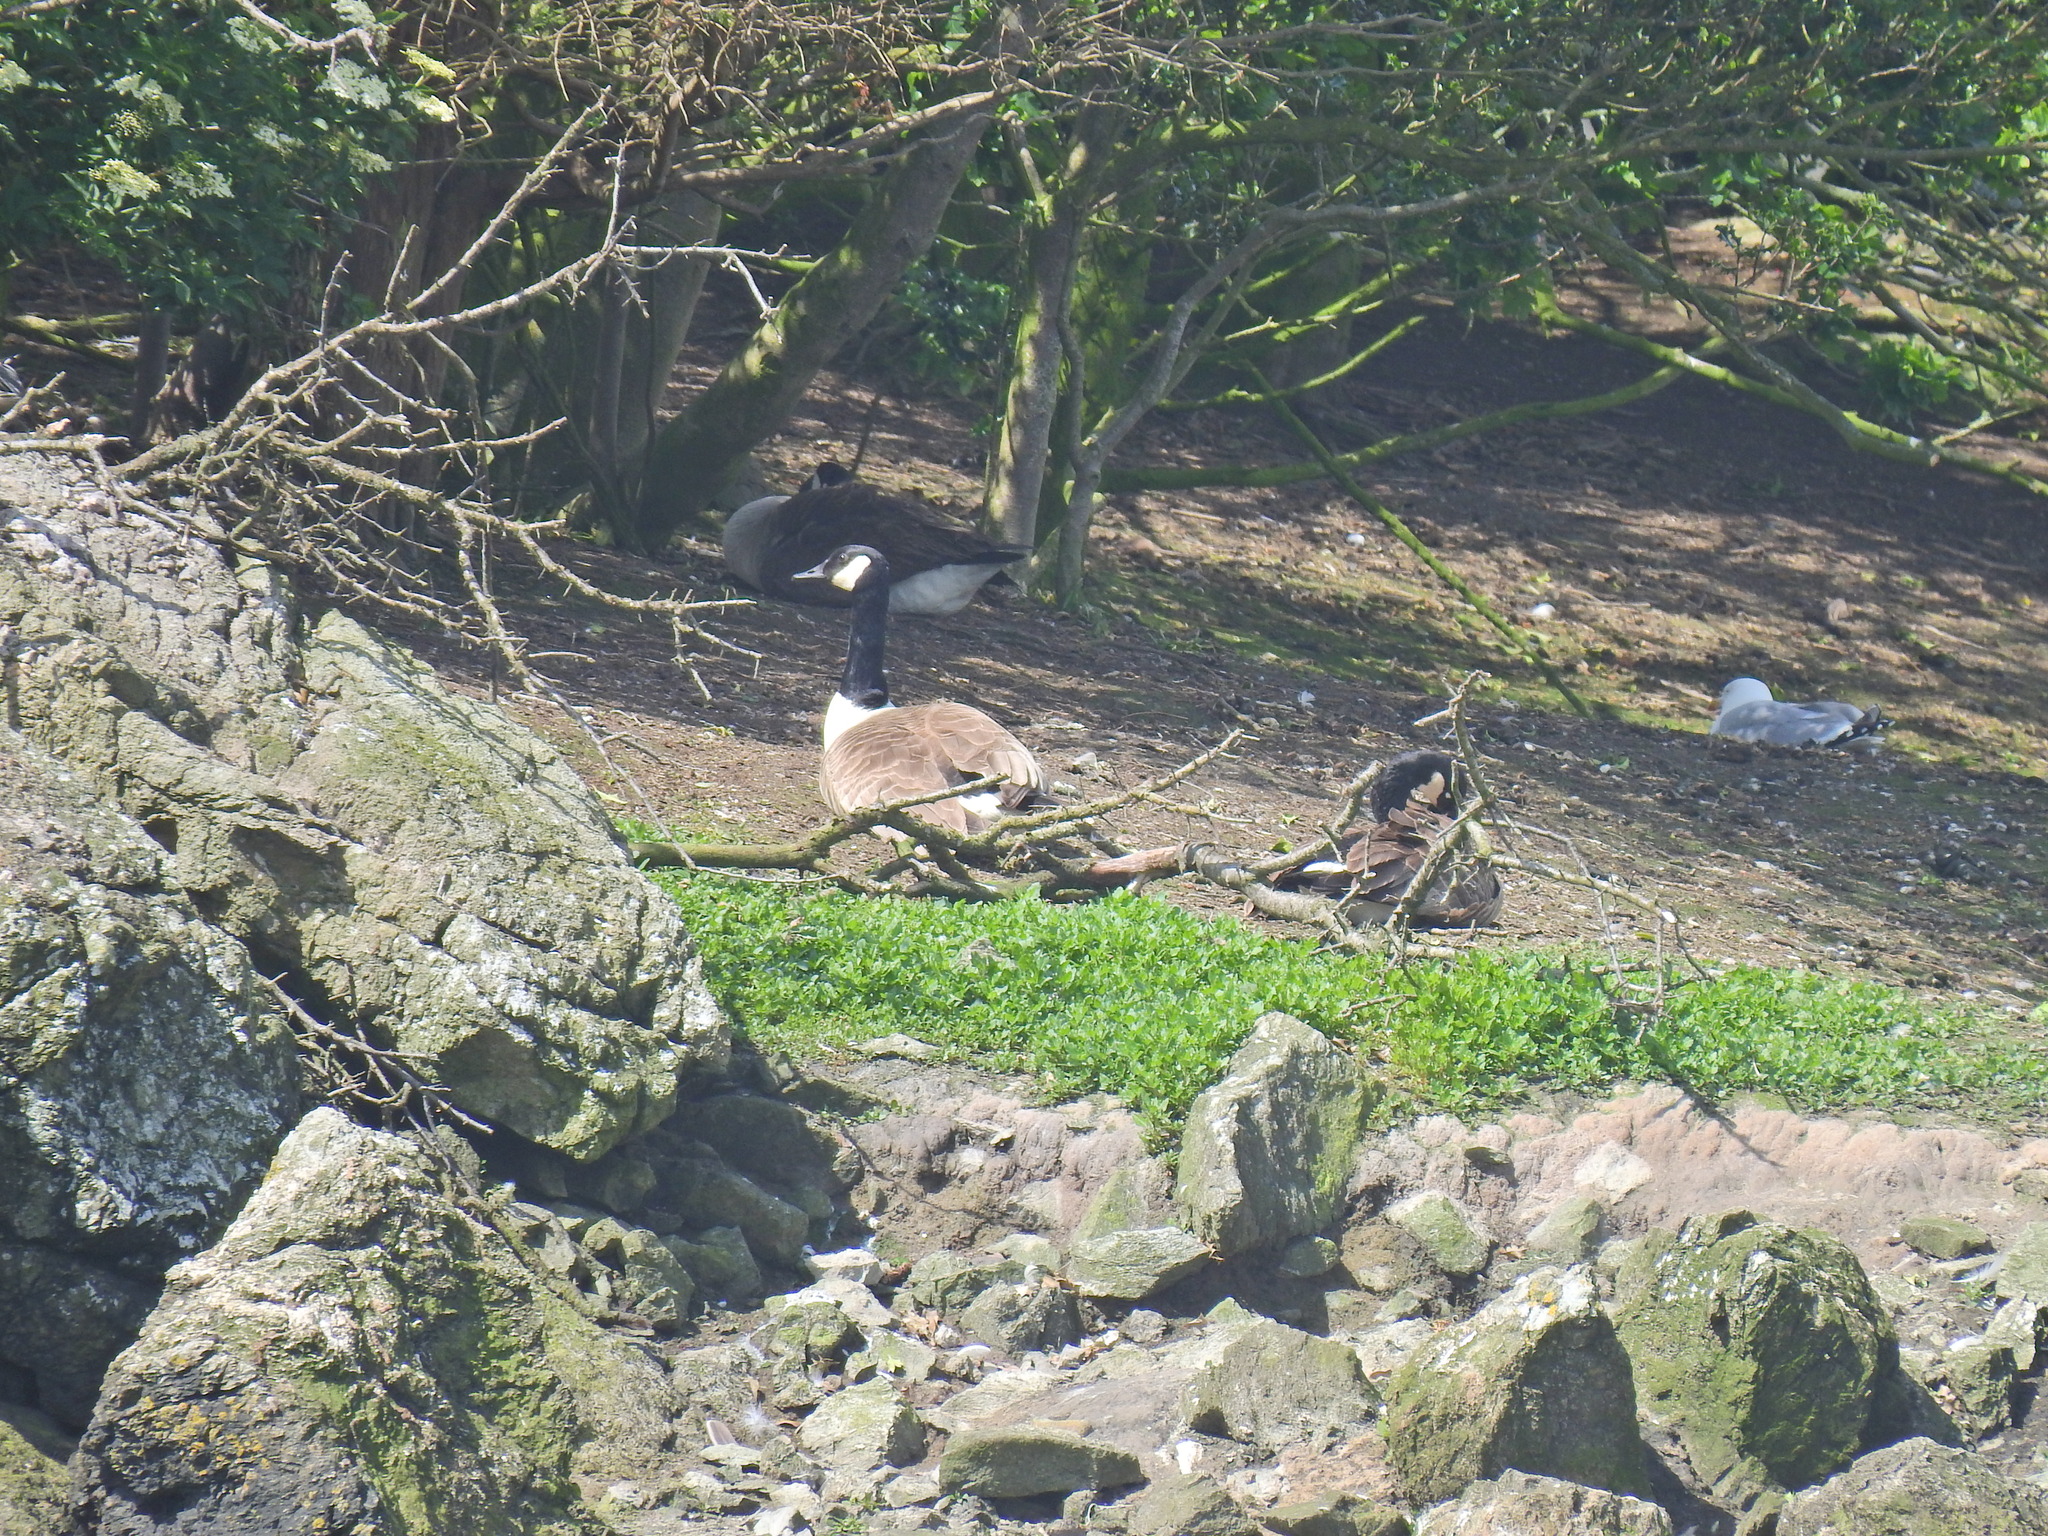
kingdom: Animalia
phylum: Chordata
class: Aves
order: Anseriformes
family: Anatidae
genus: Branta
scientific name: Branta canadensis
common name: Canada goose
